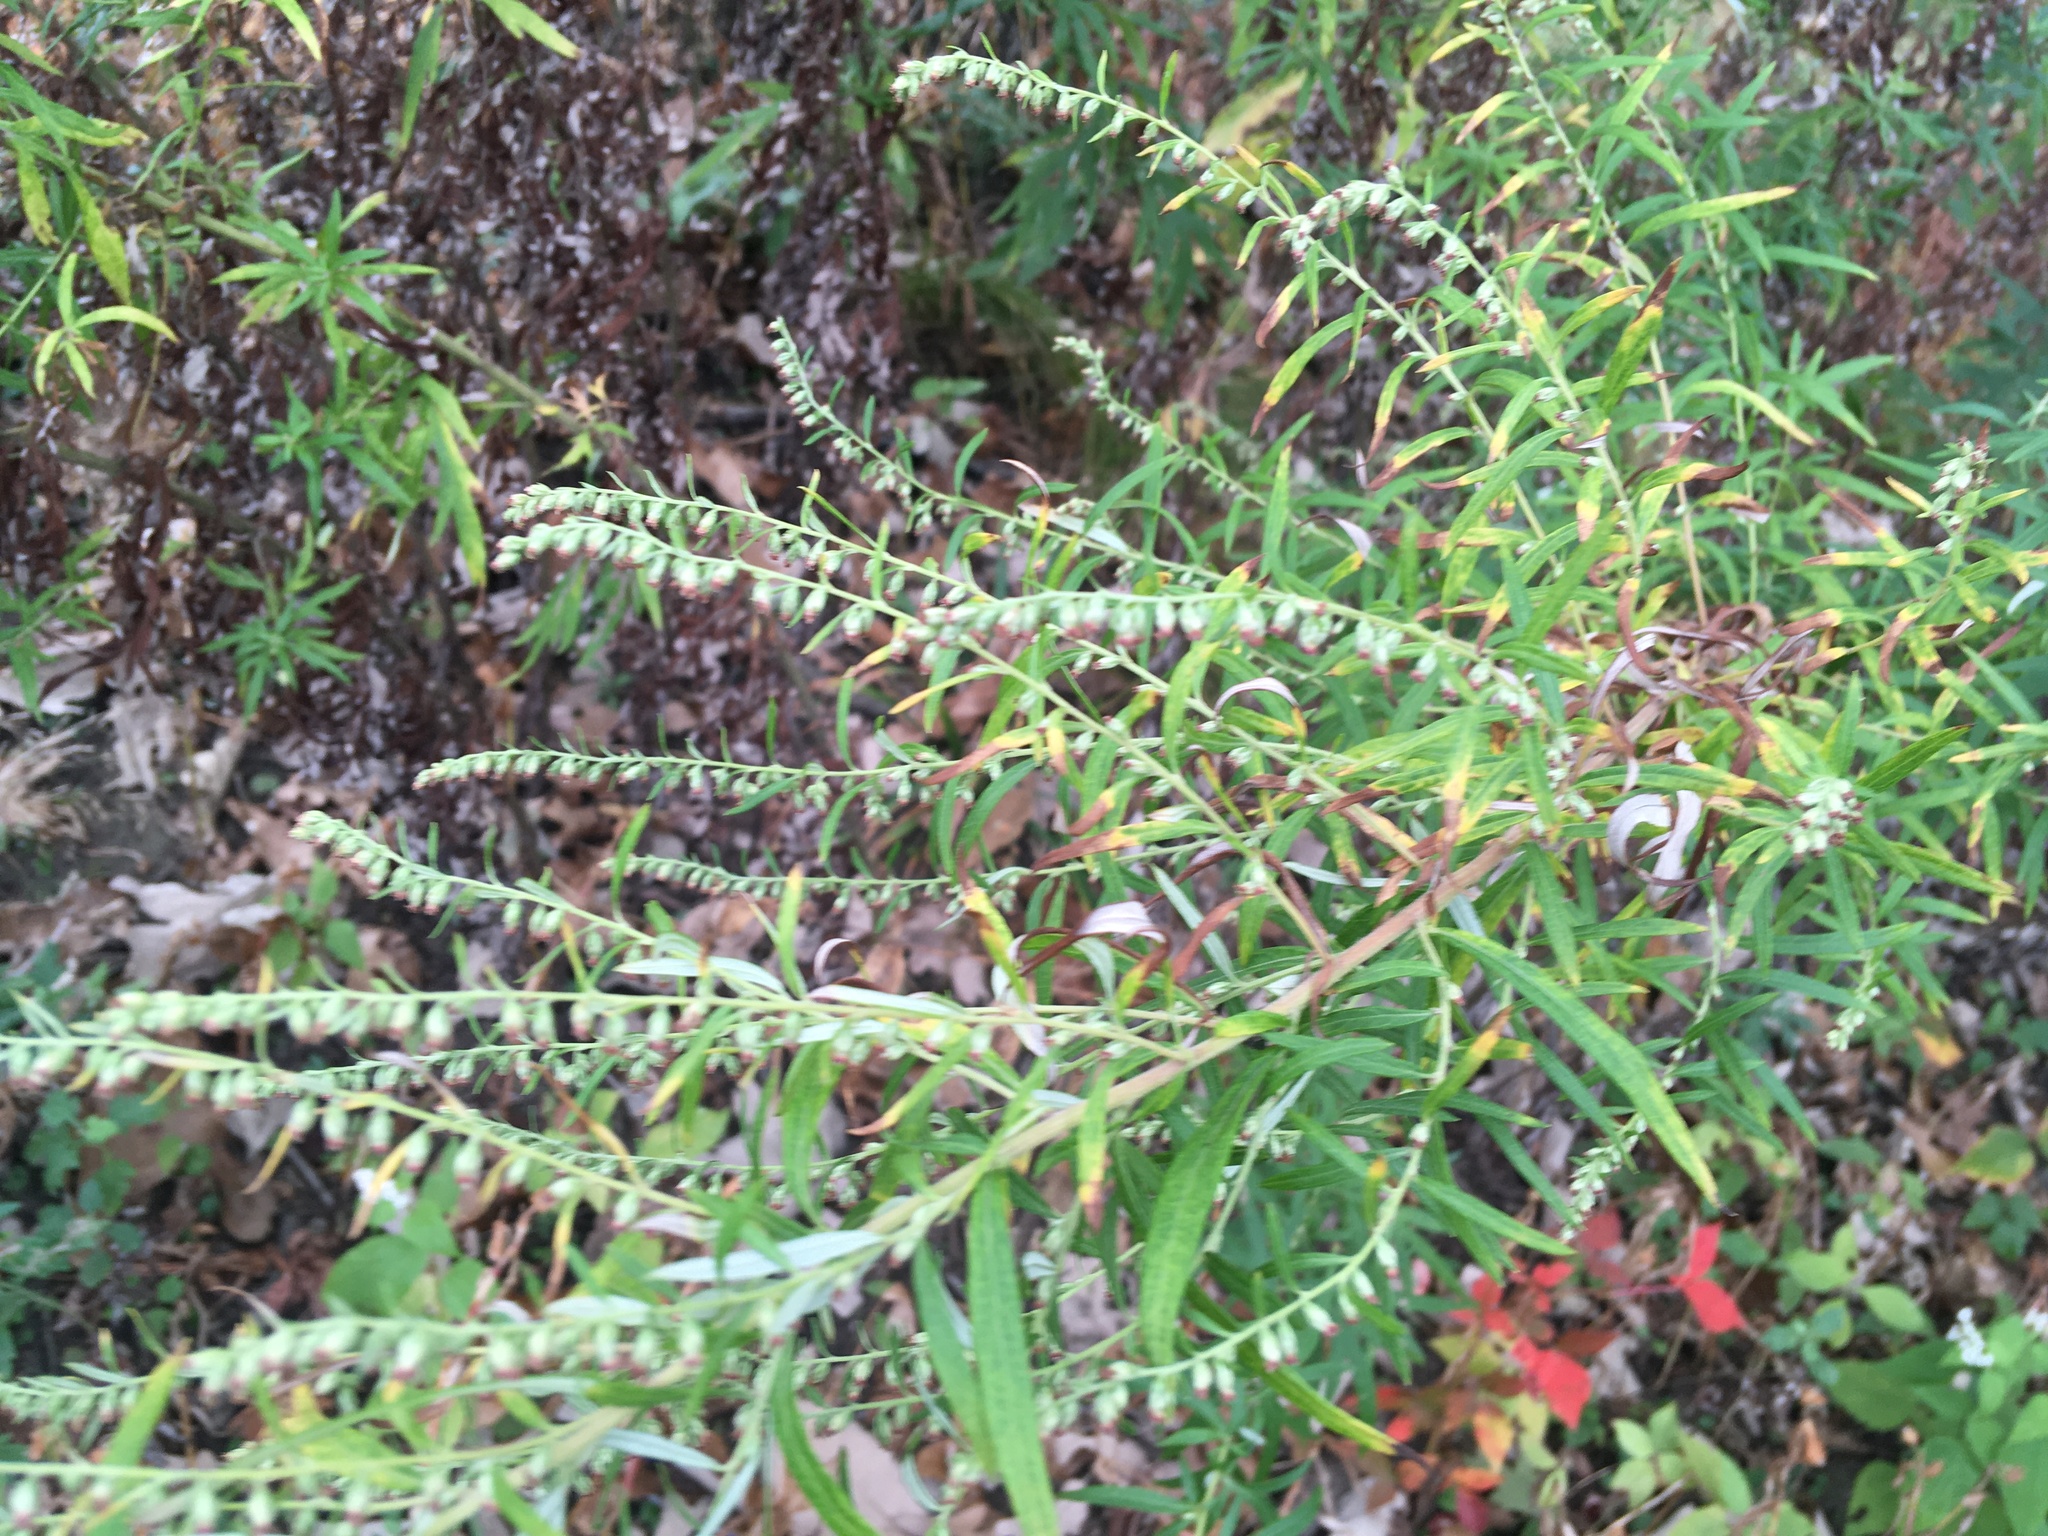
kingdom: Plantae
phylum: Tracheophyta
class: Magnoliopsida
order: Asterales
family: Asteraceae
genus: Artemisia
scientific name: Artemisia vulgaris
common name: Mugwort
